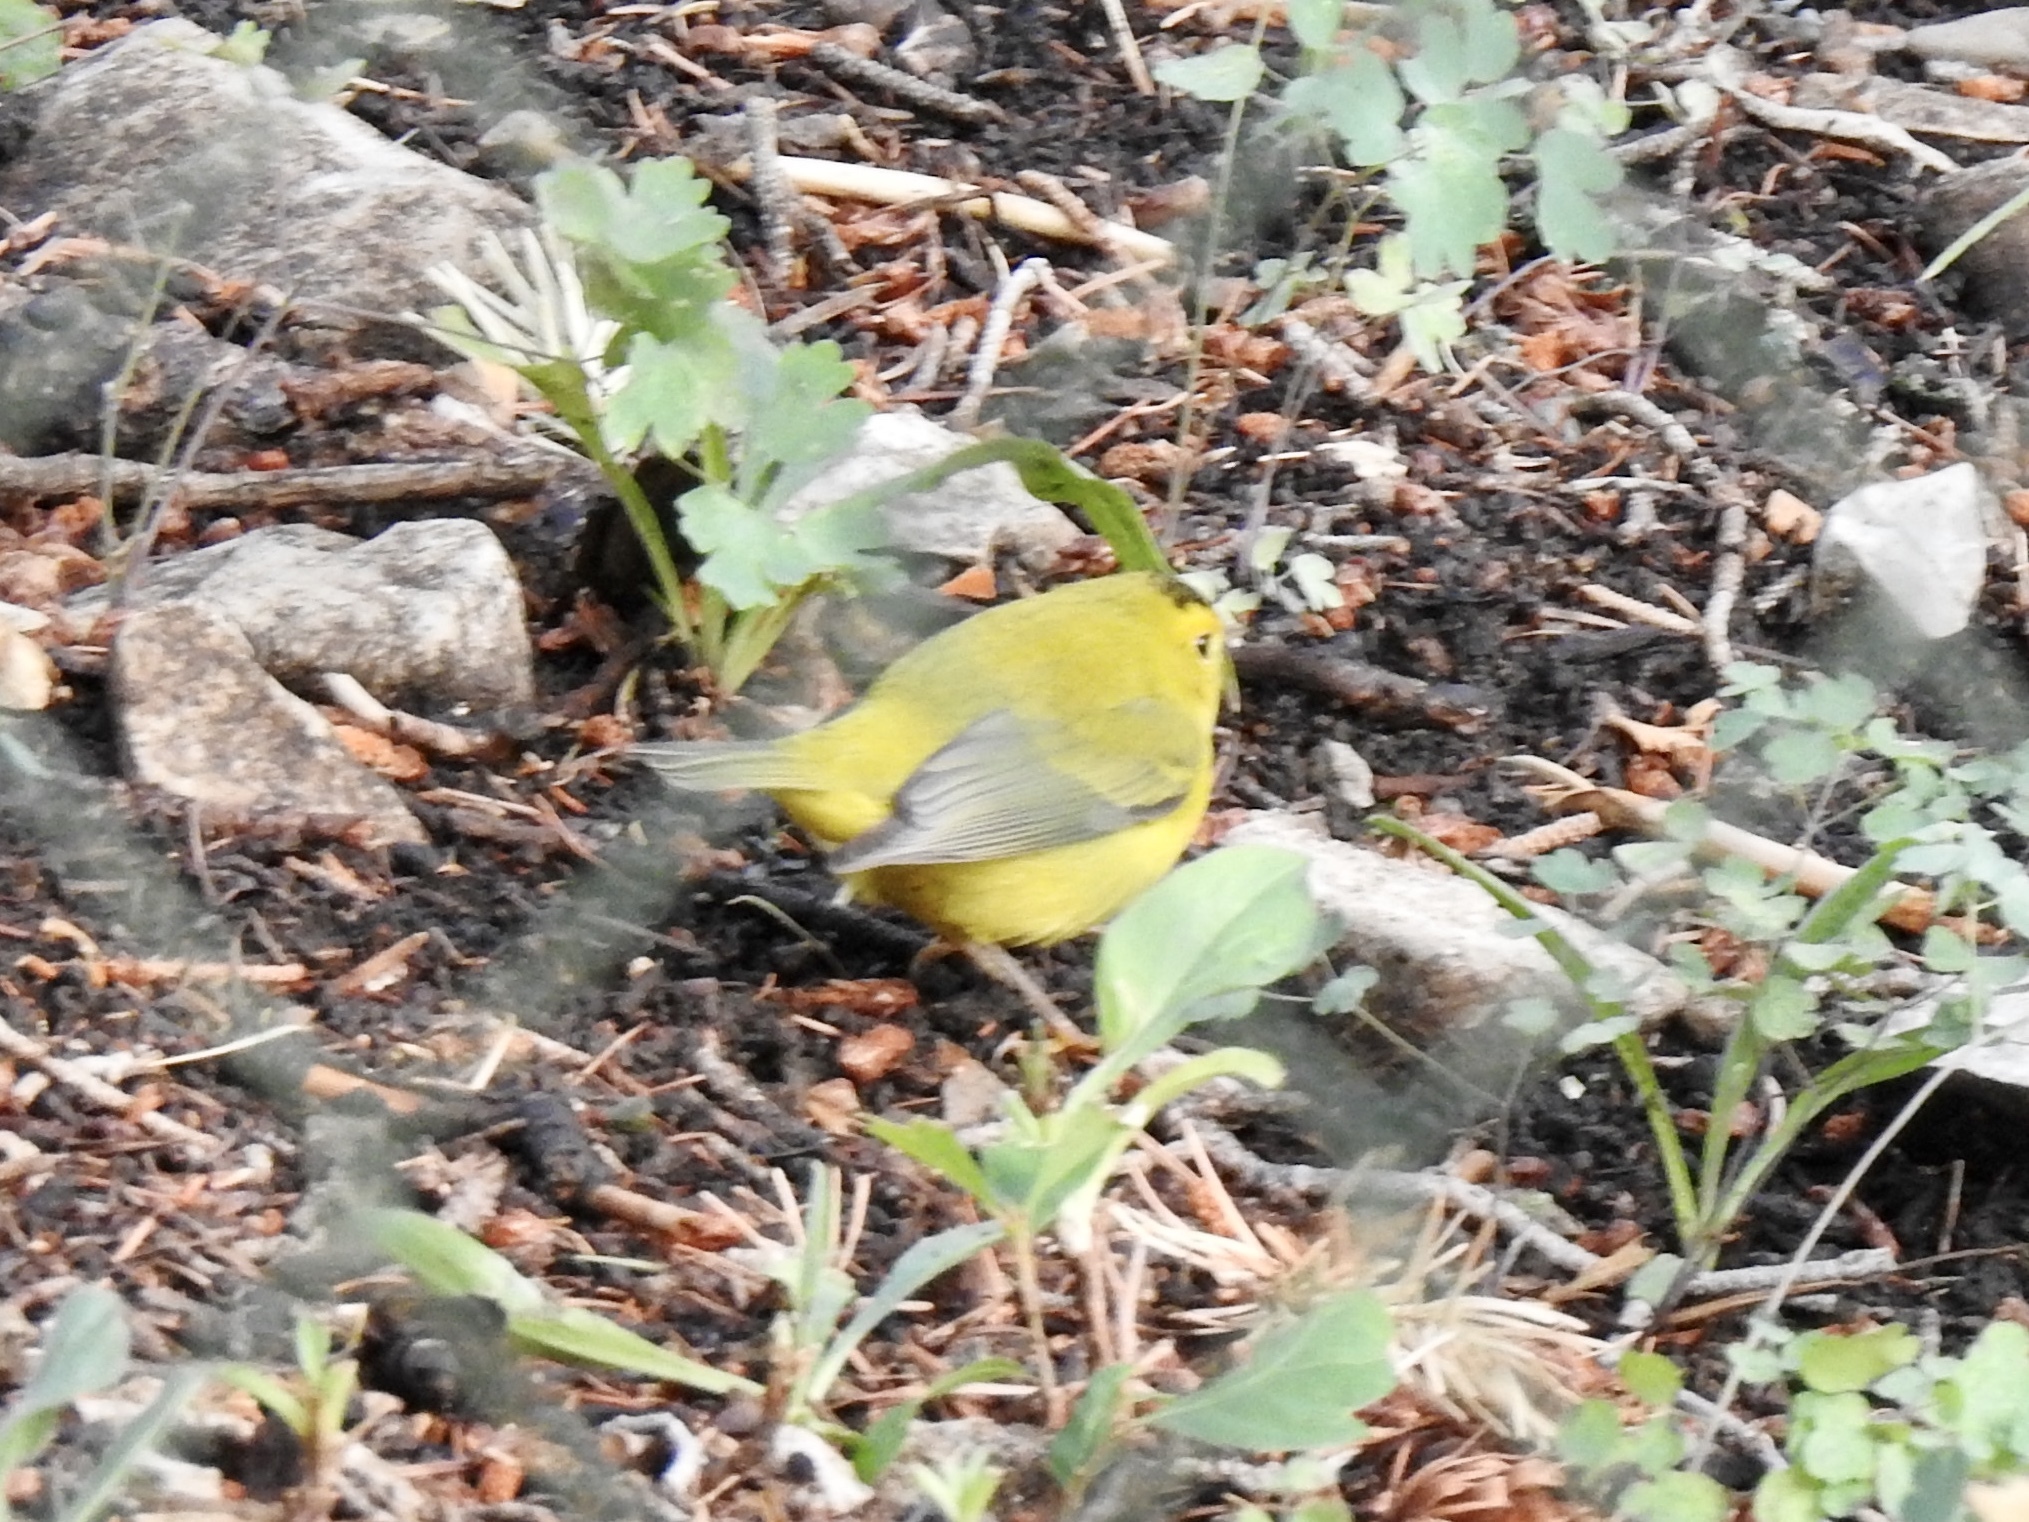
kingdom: Animalia
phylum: Chordata
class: Aves
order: Passeriformes
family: Parulidae
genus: Cardellina
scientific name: Cardellina pusilla
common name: Wilson's warbler
